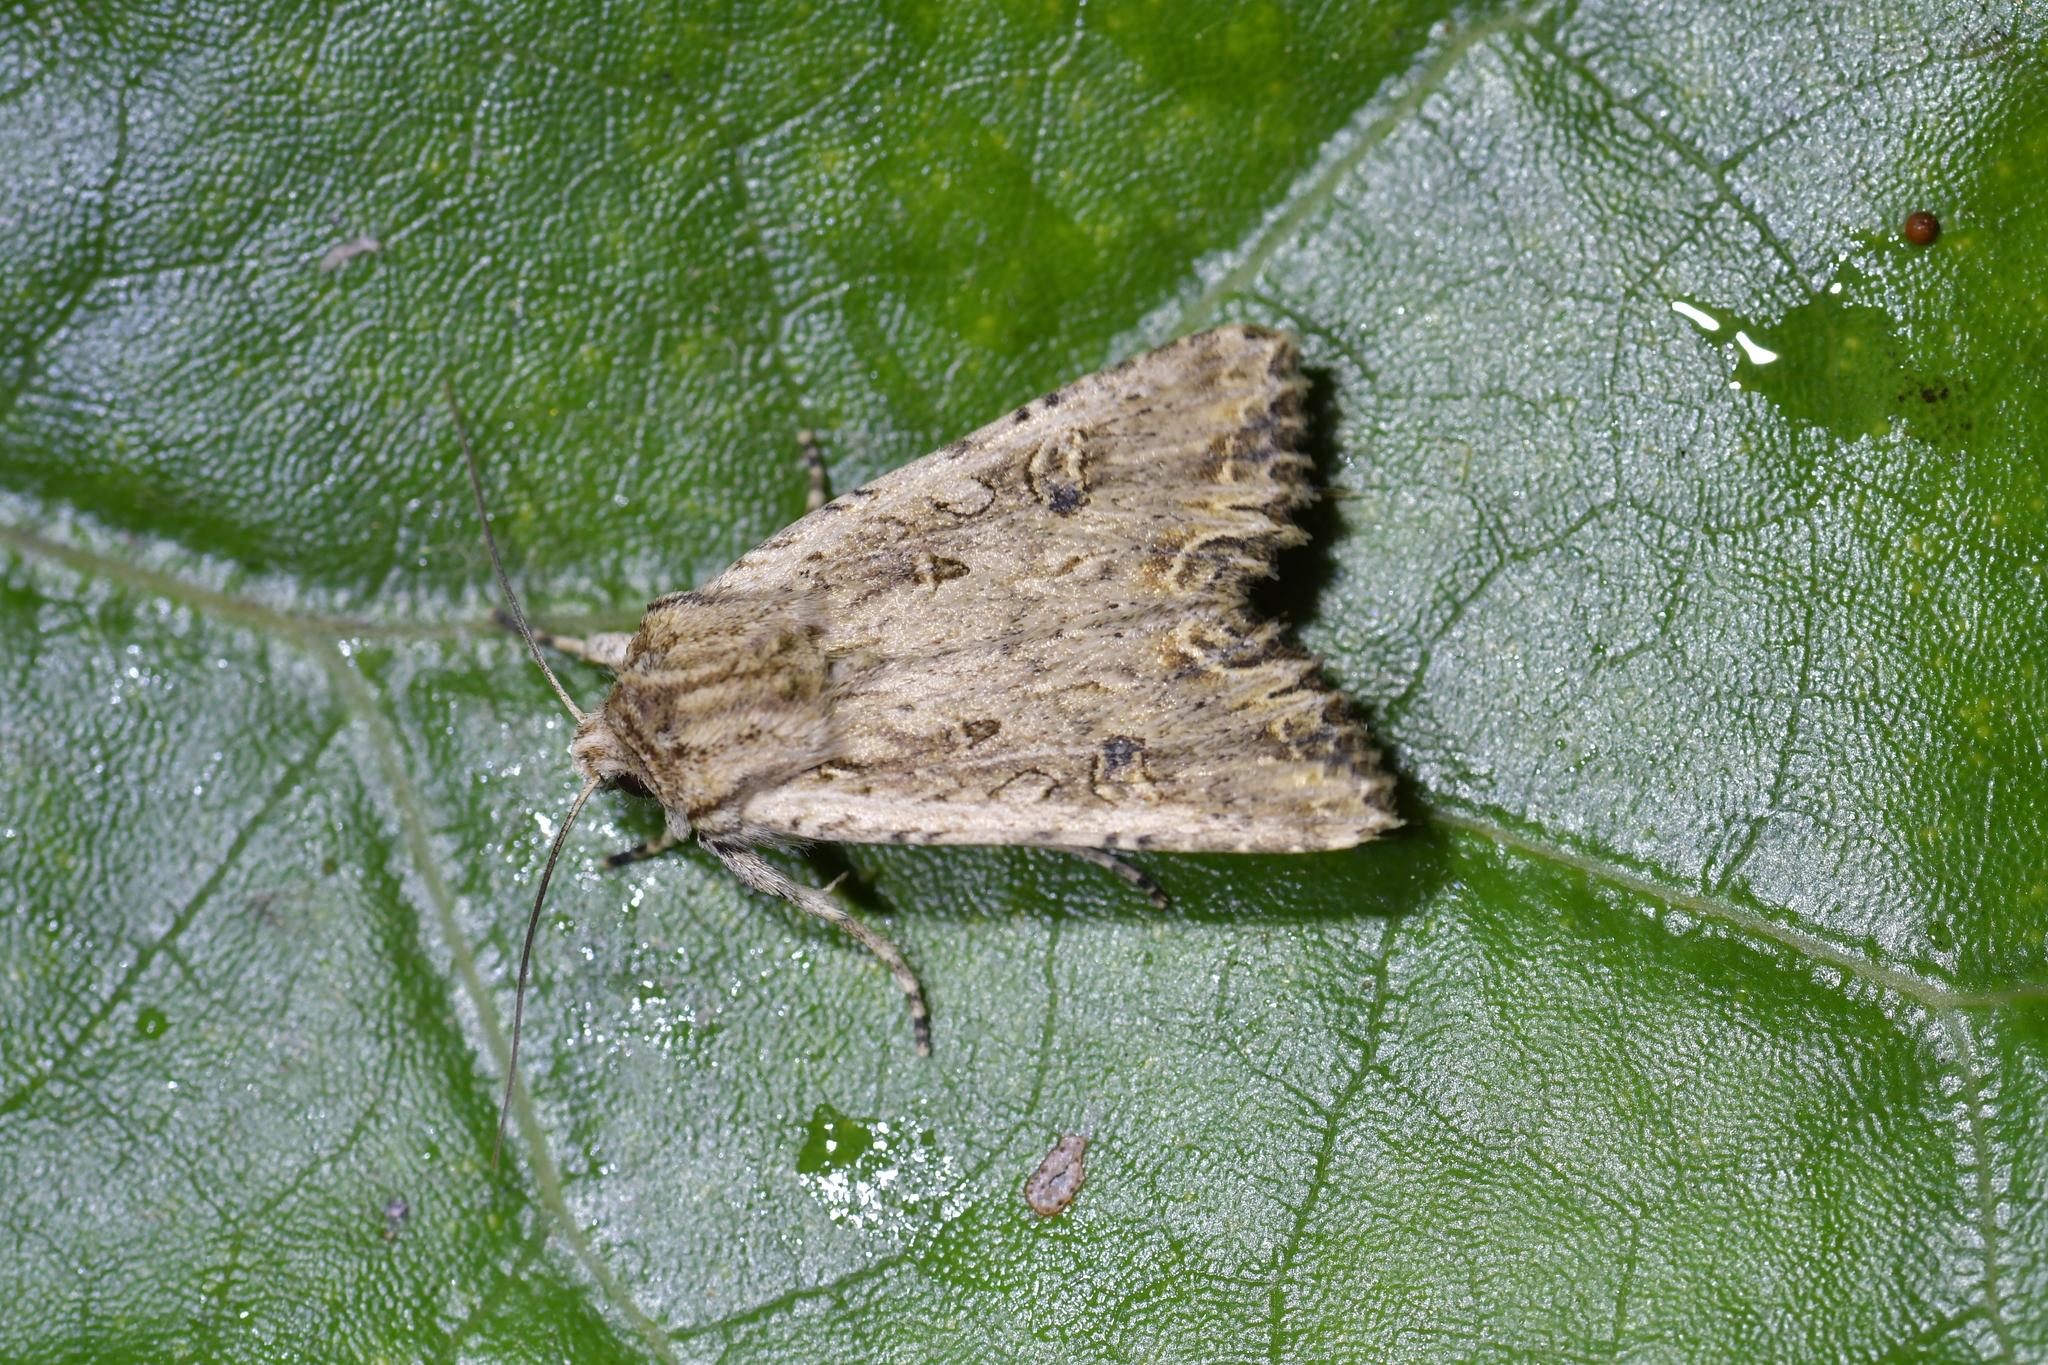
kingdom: Animalia
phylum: Arthropoda
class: Insecta
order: Lepidoptera
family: Noctuidae
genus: Ichneutica
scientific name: Ichneutica lignana
